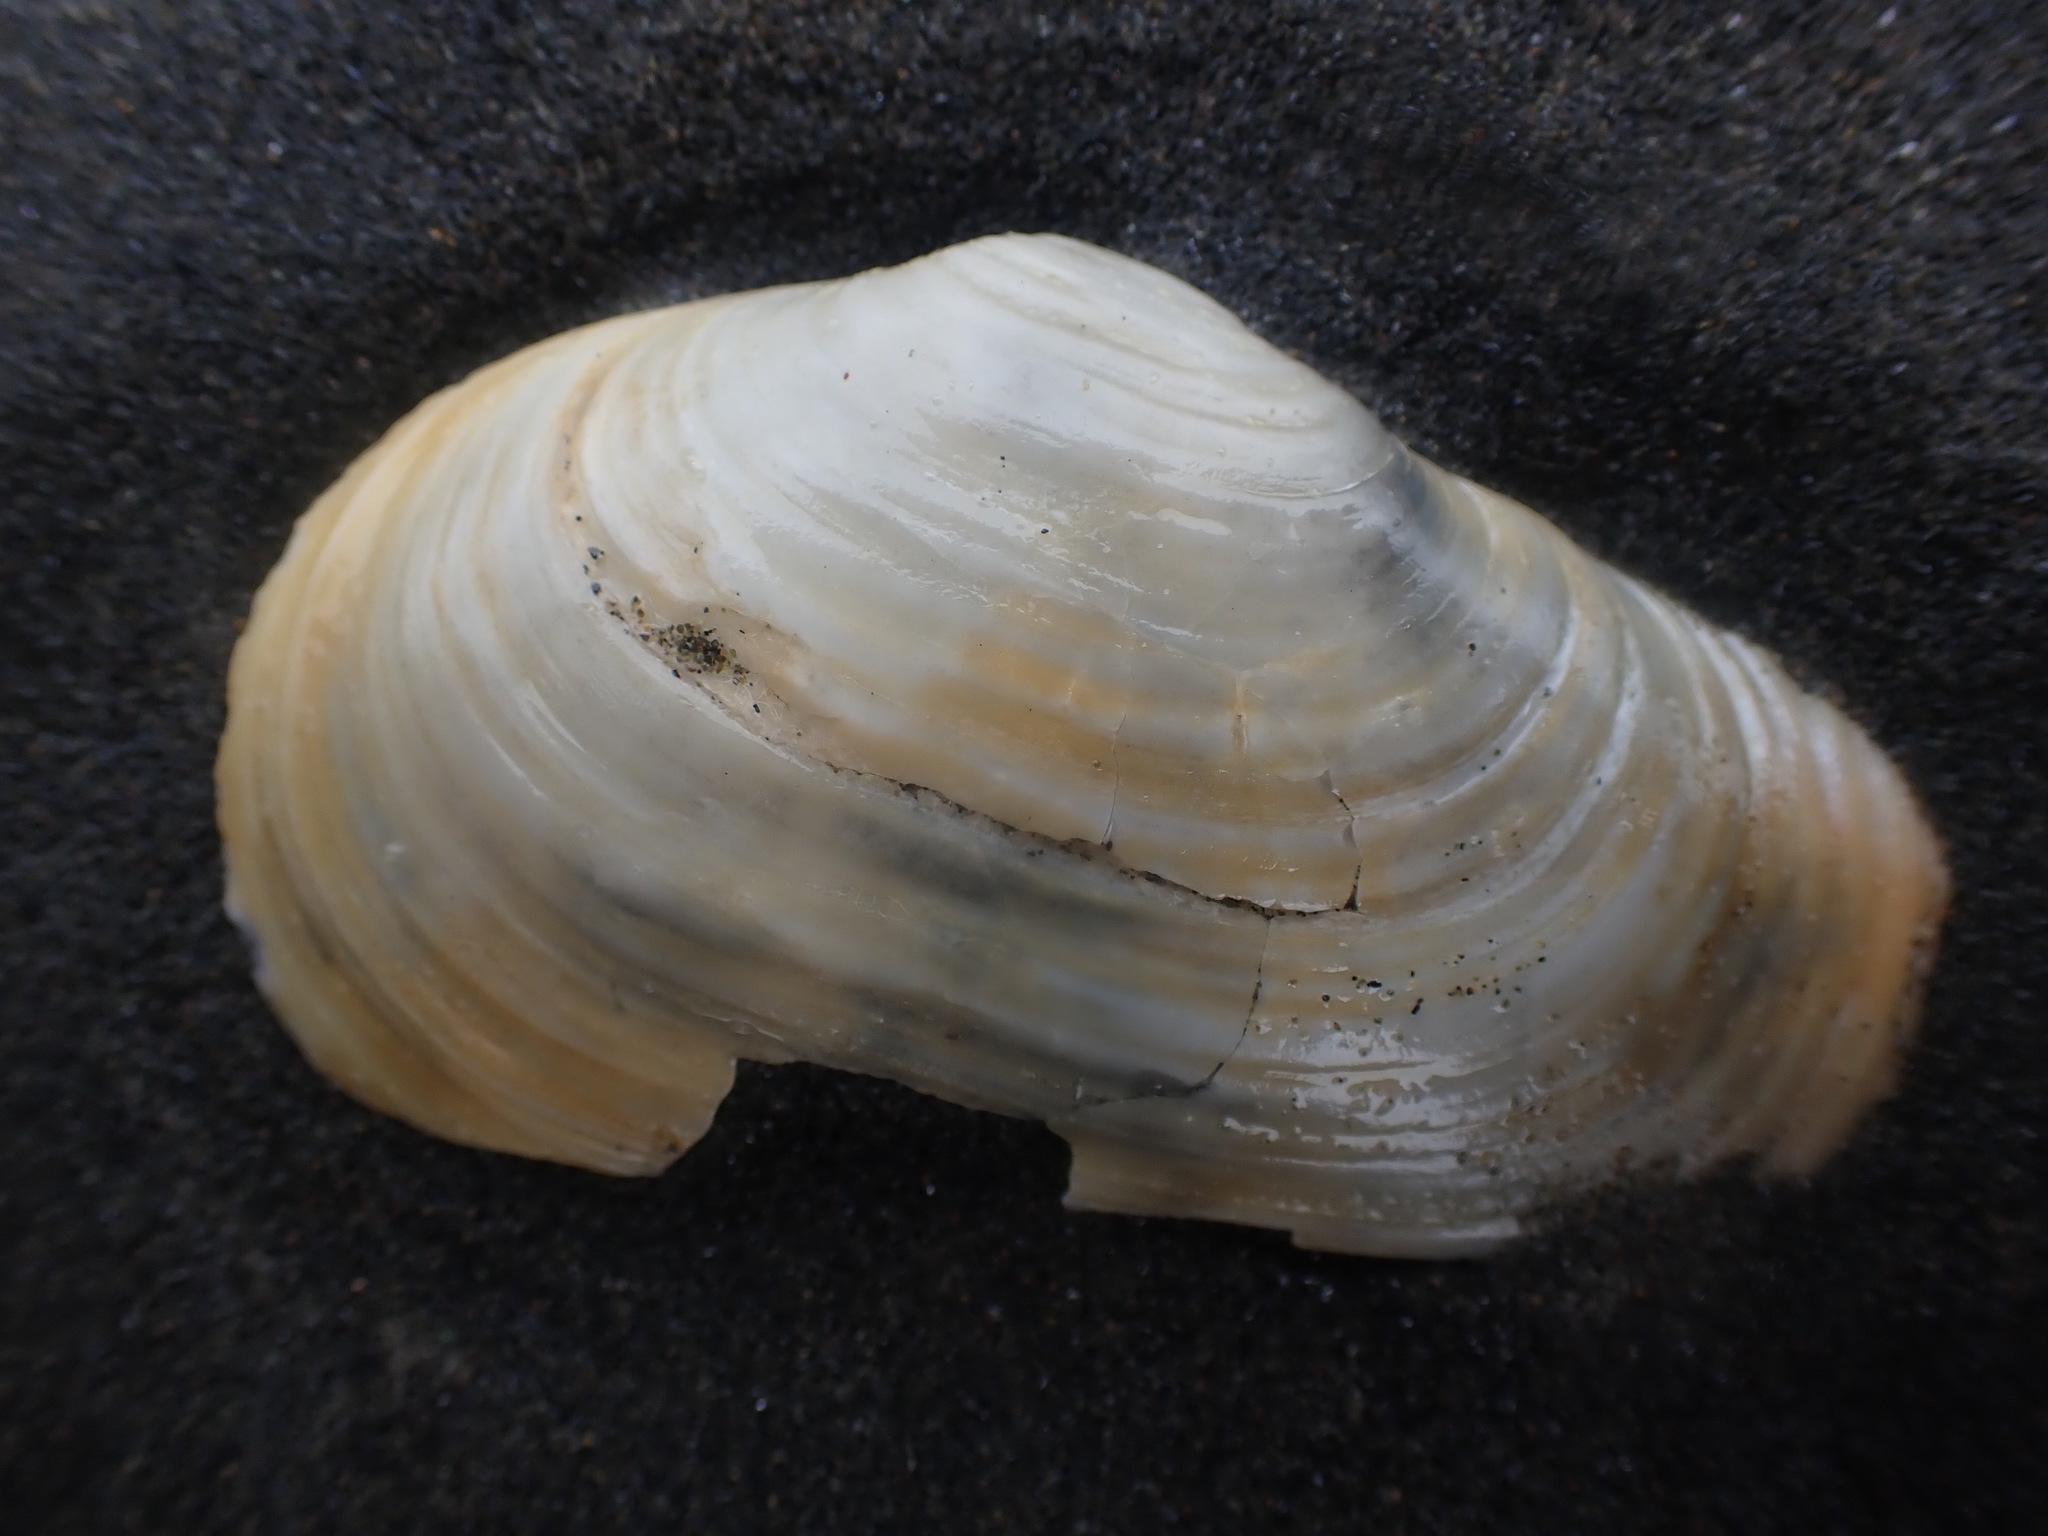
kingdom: Animalia
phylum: Mollusca
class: Bivalvia
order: Adapedonta
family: Hiatellidae
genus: Panopea
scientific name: Panopea zelandica
